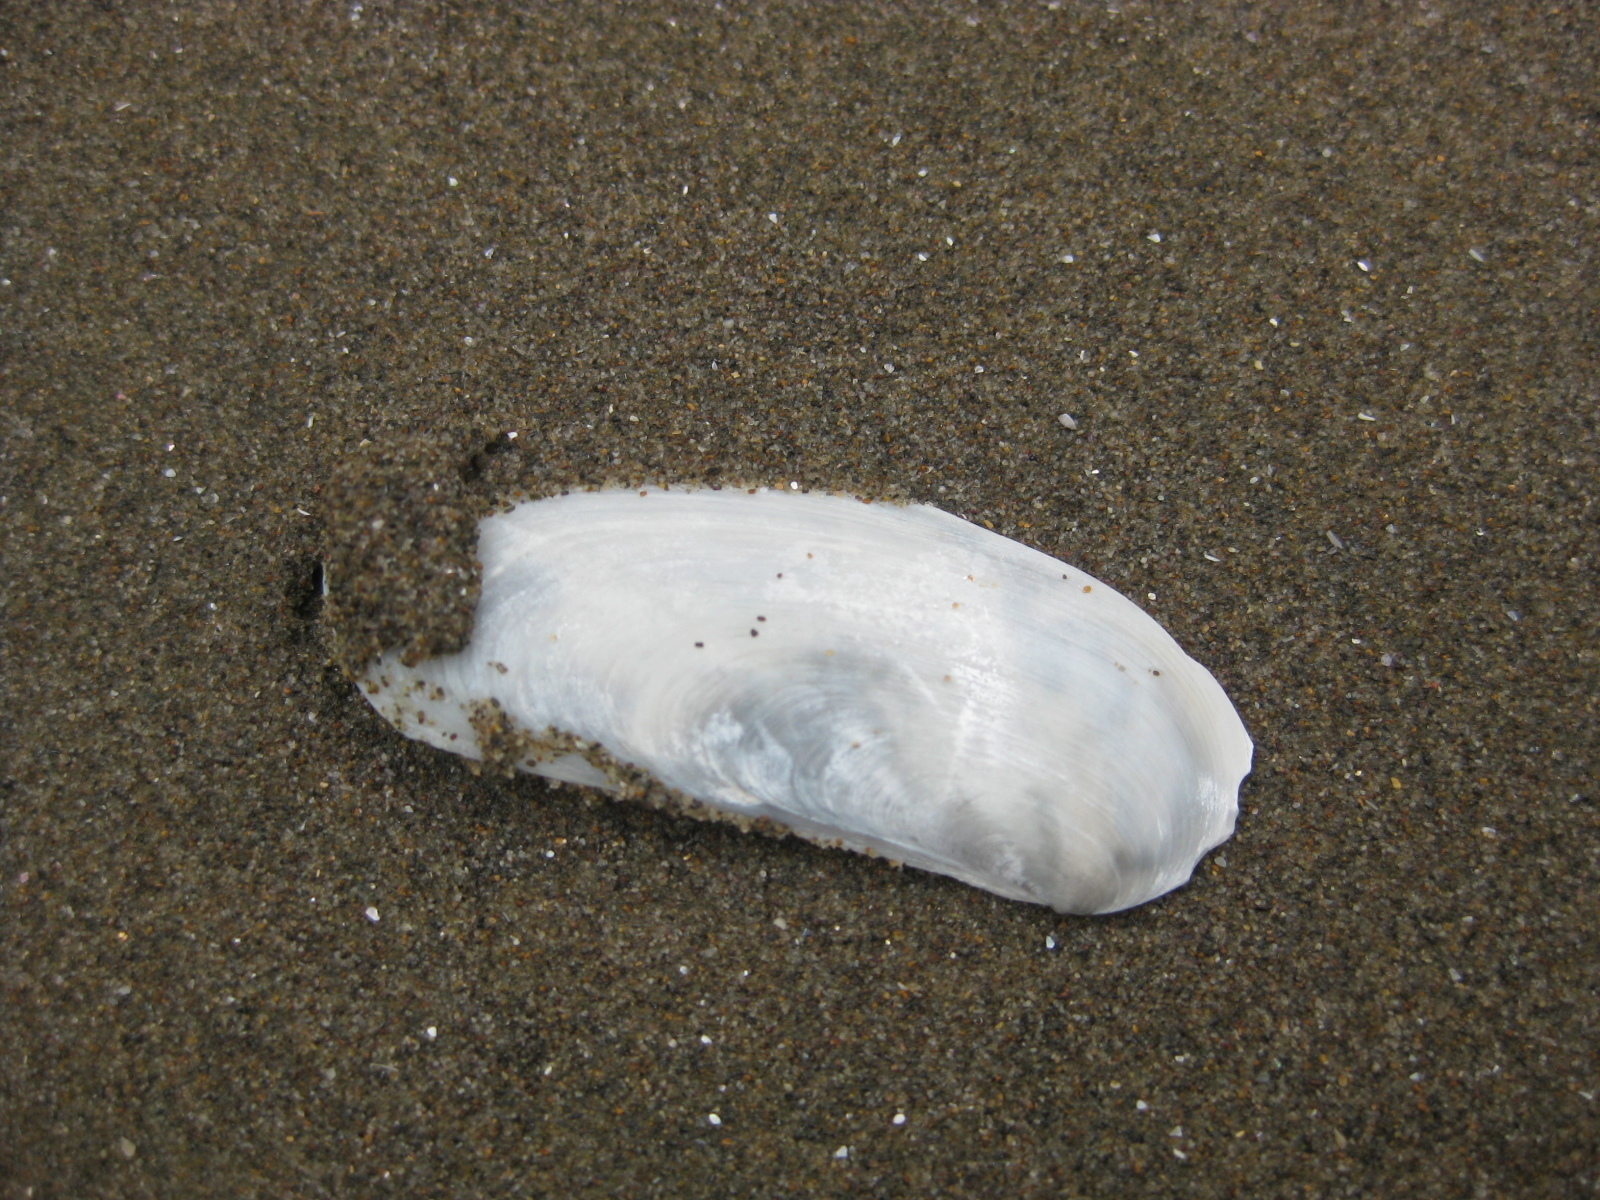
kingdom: Animalia
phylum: Mollusca
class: Bivalvia
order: Venerida
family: Mactridae
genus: Zenatia
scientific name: Zenatia acinaces
